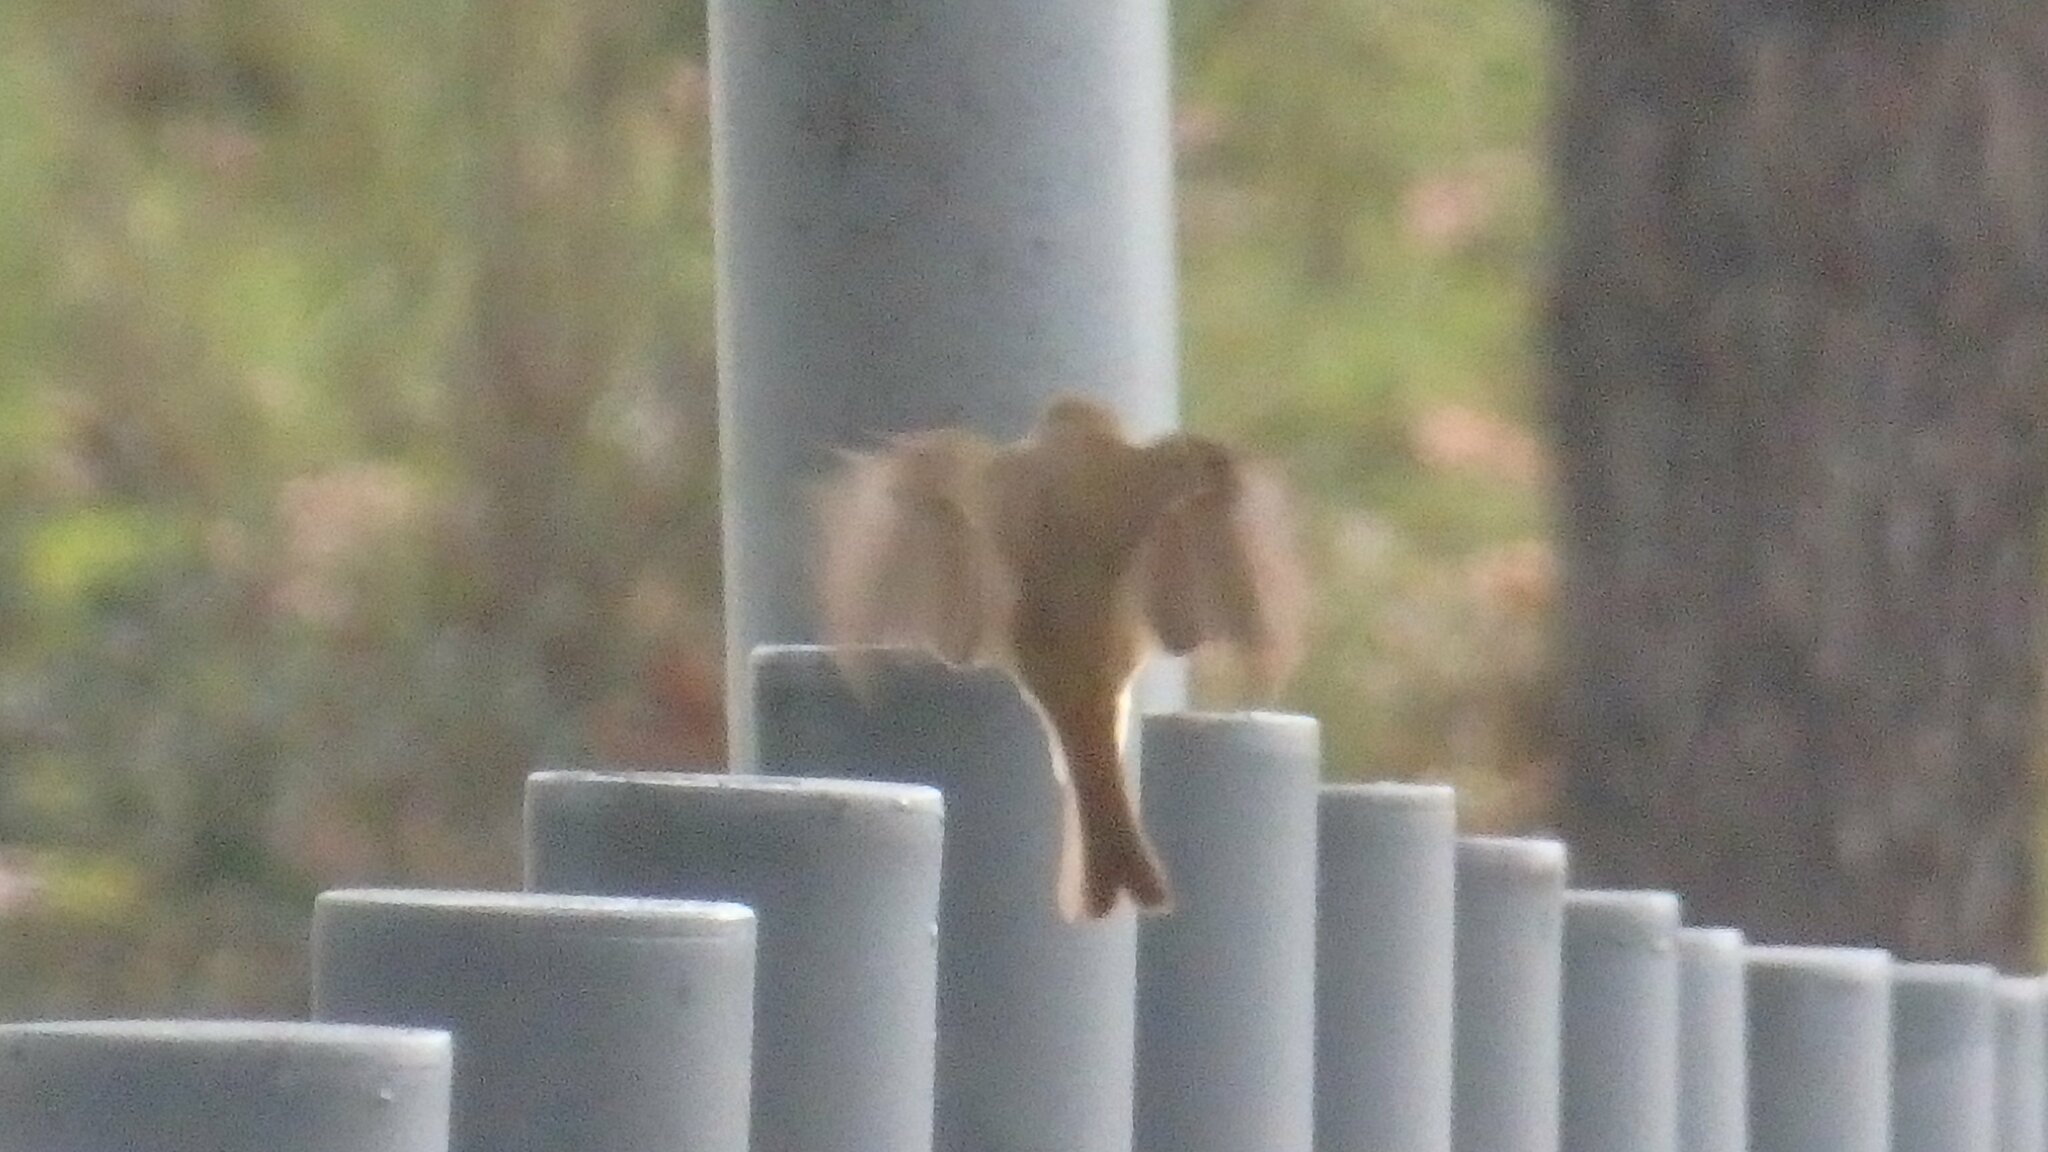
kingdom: Animalia
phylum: Chordata
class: Aves
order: Passeriformes
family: Muscicapidae
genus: Erithacus
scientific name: Erithacus rubecula
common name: European robin
